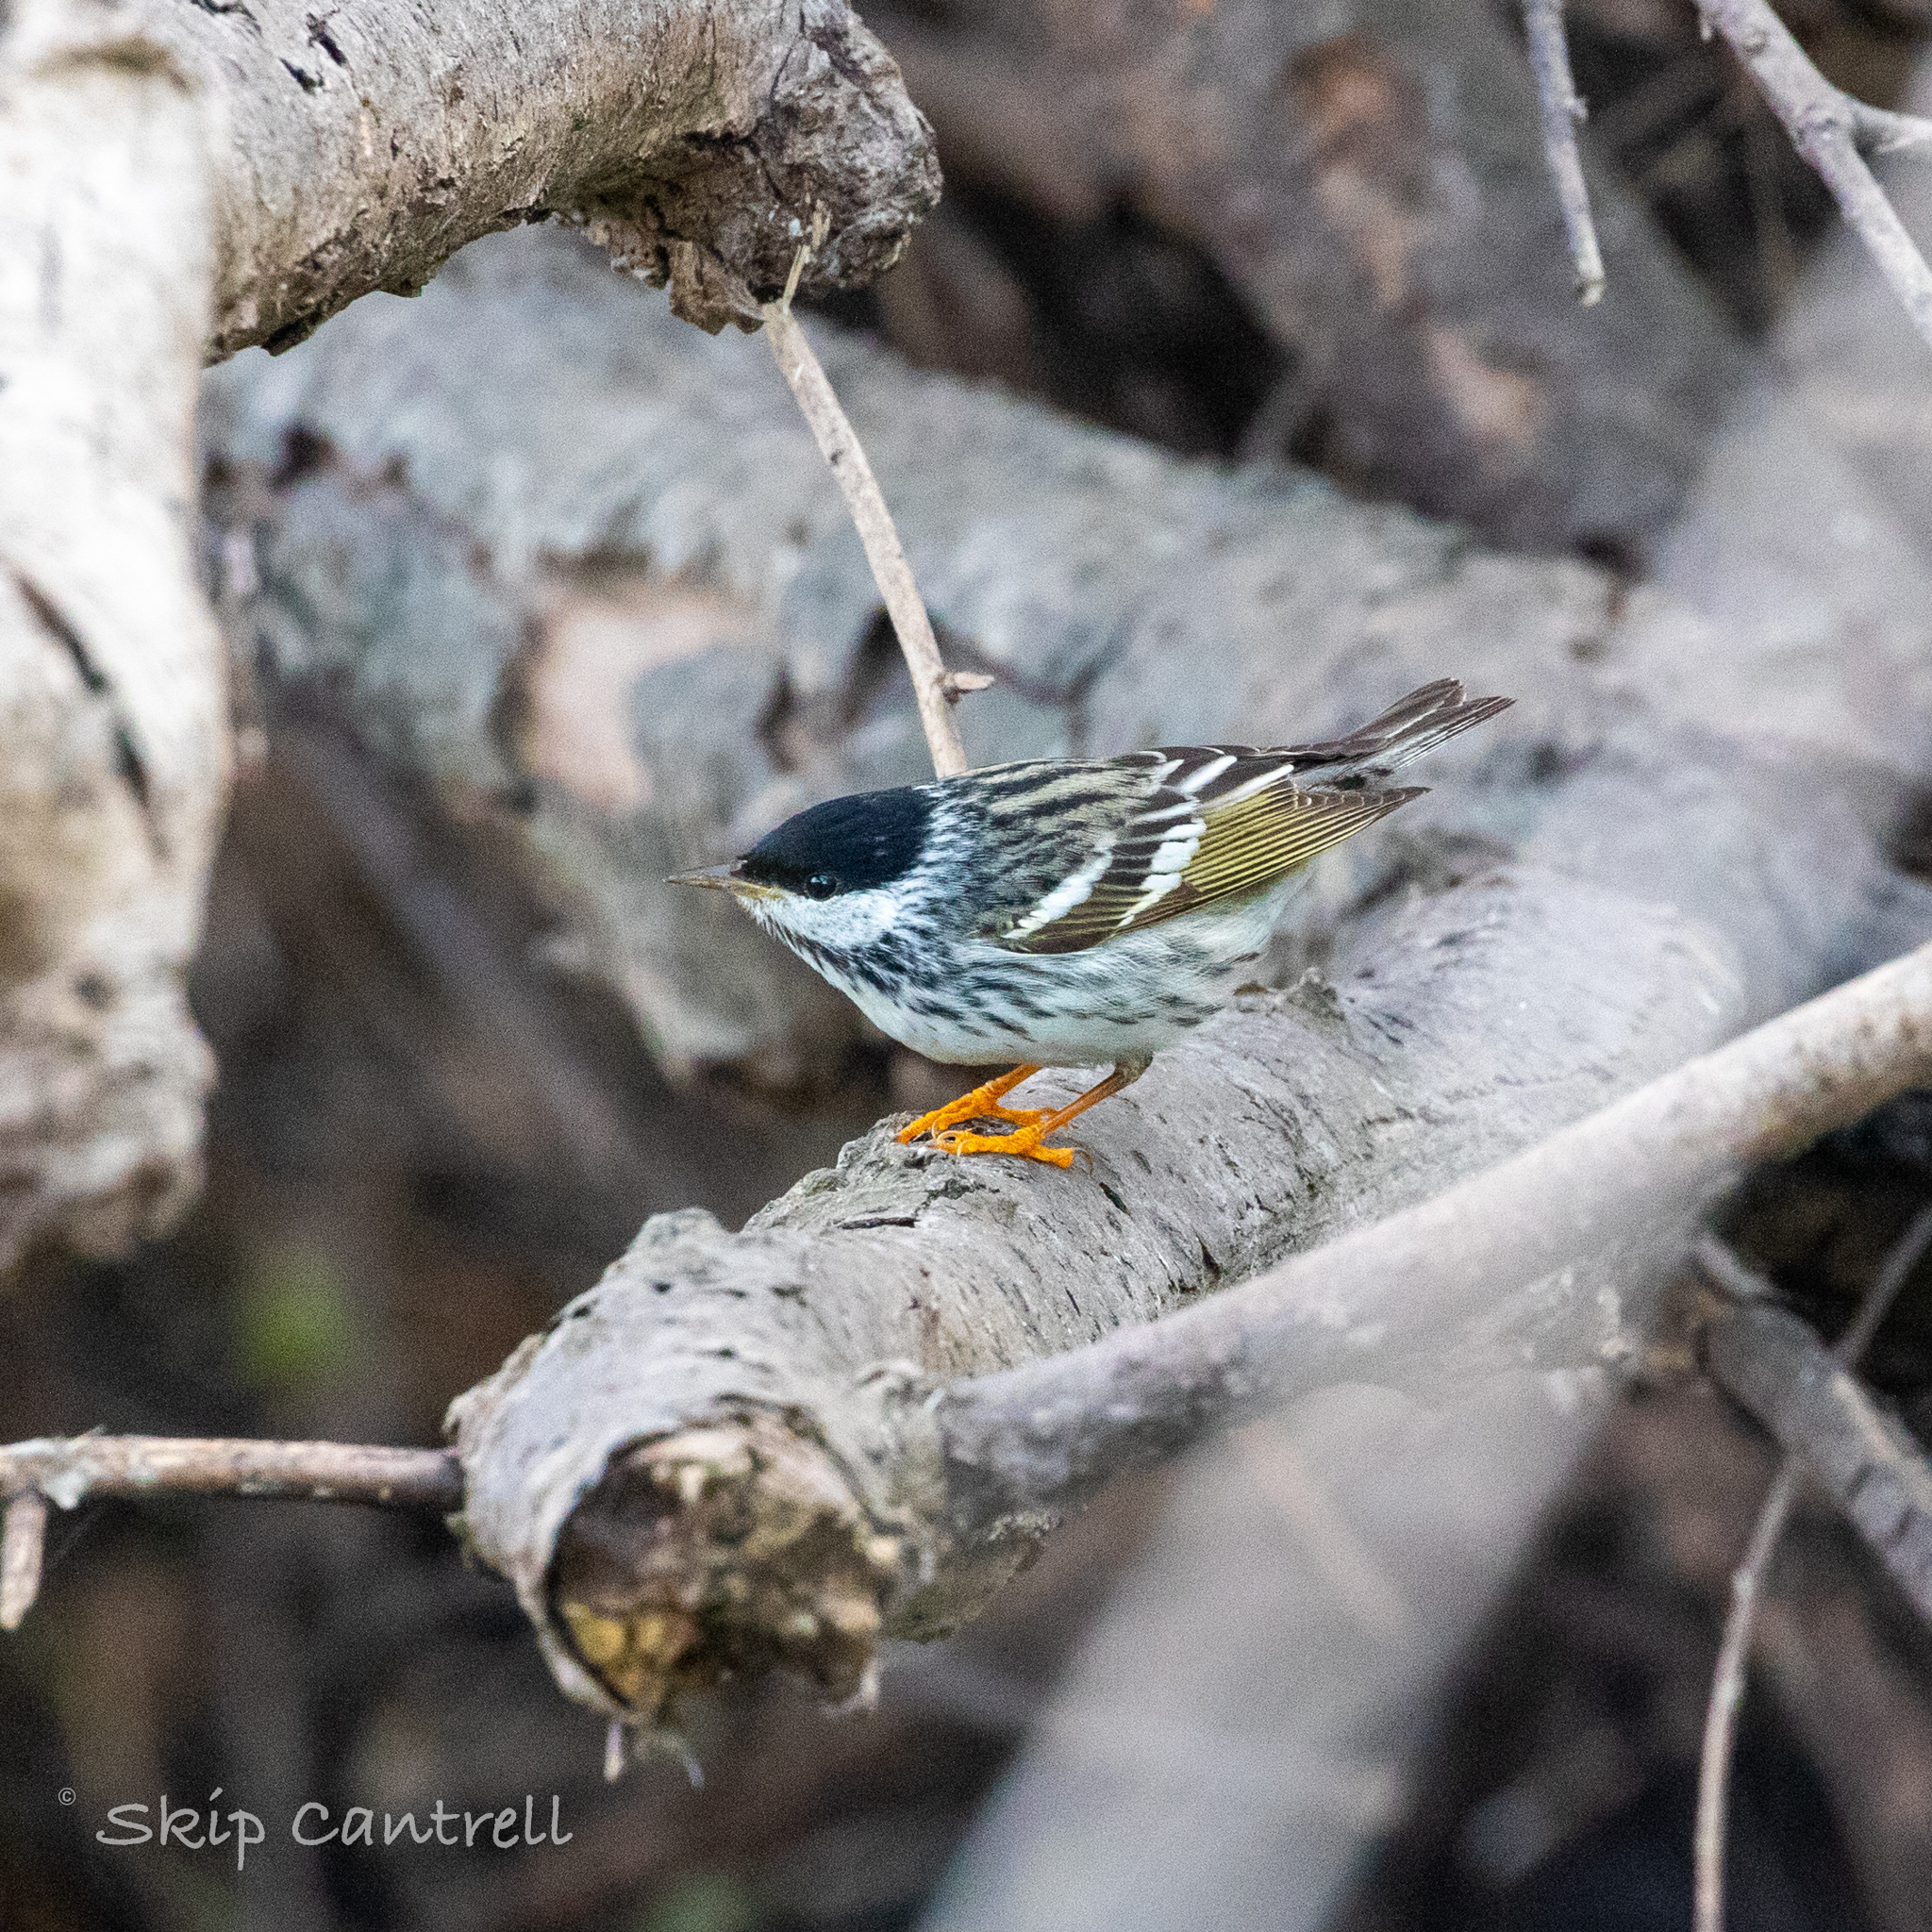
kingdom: Animalia
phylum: Chordata
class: Aves
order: Passeriformes
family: Parulidae
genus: Setophaga
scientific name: Setophaga striata
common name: Blackpoll warbler
